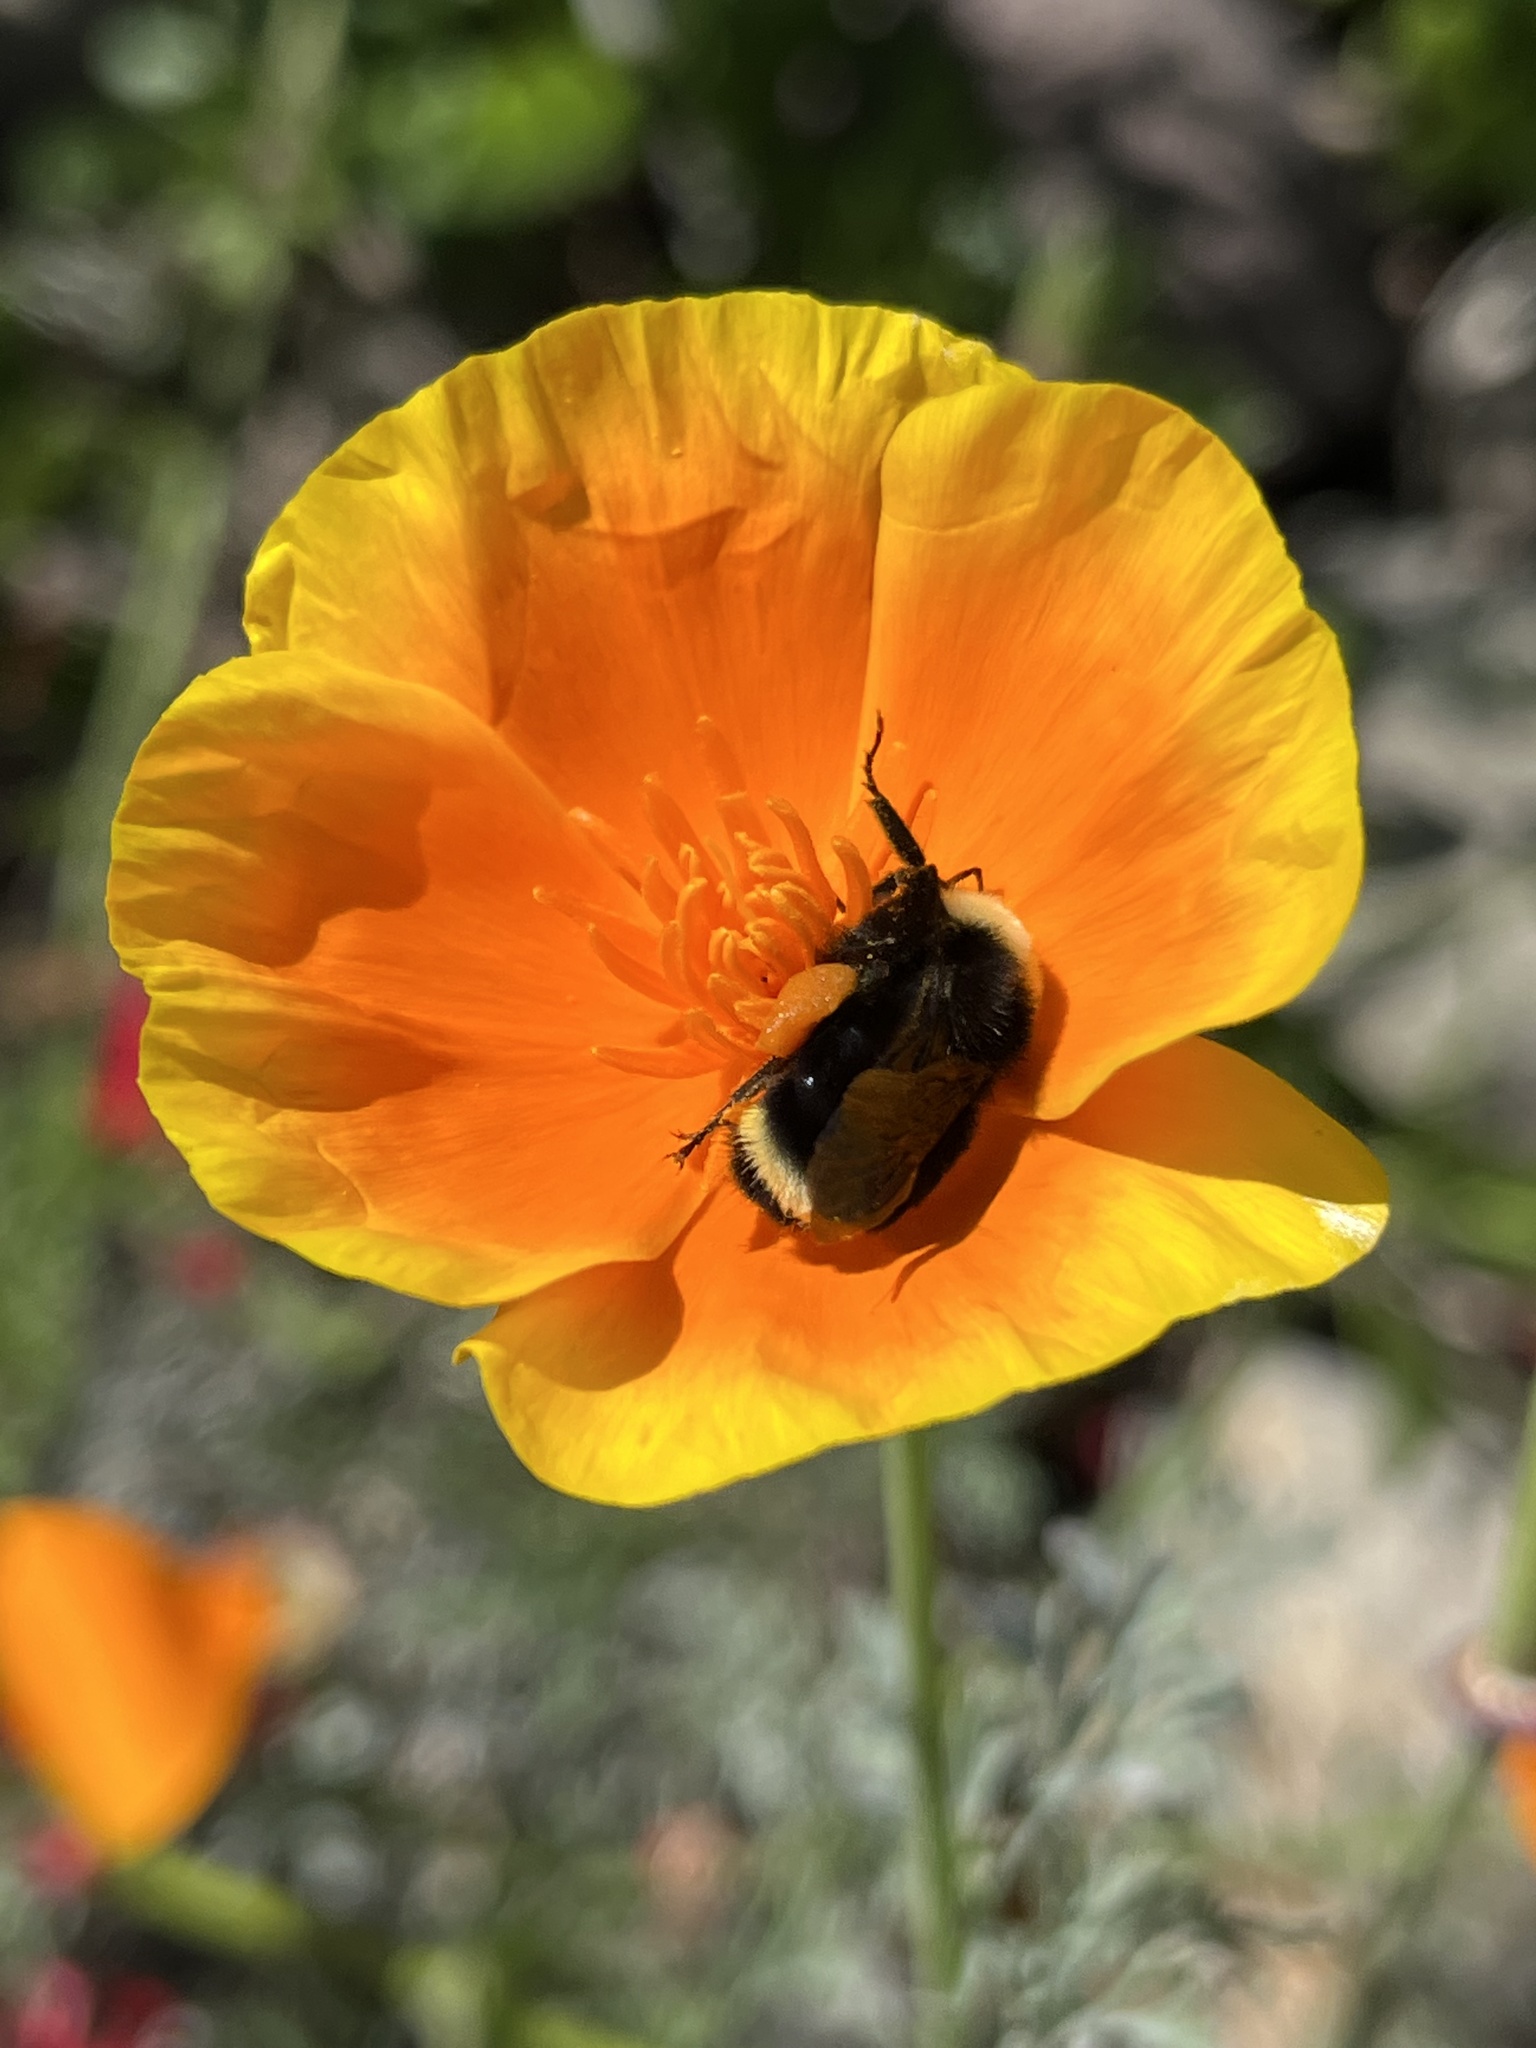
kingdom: Animalia
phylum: Arthropoda
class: Insecta
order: Hymenoptera
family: Apidae
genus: Bombus
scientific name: Bombus vosnesenskii
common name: Vosnesensky bumble bee
